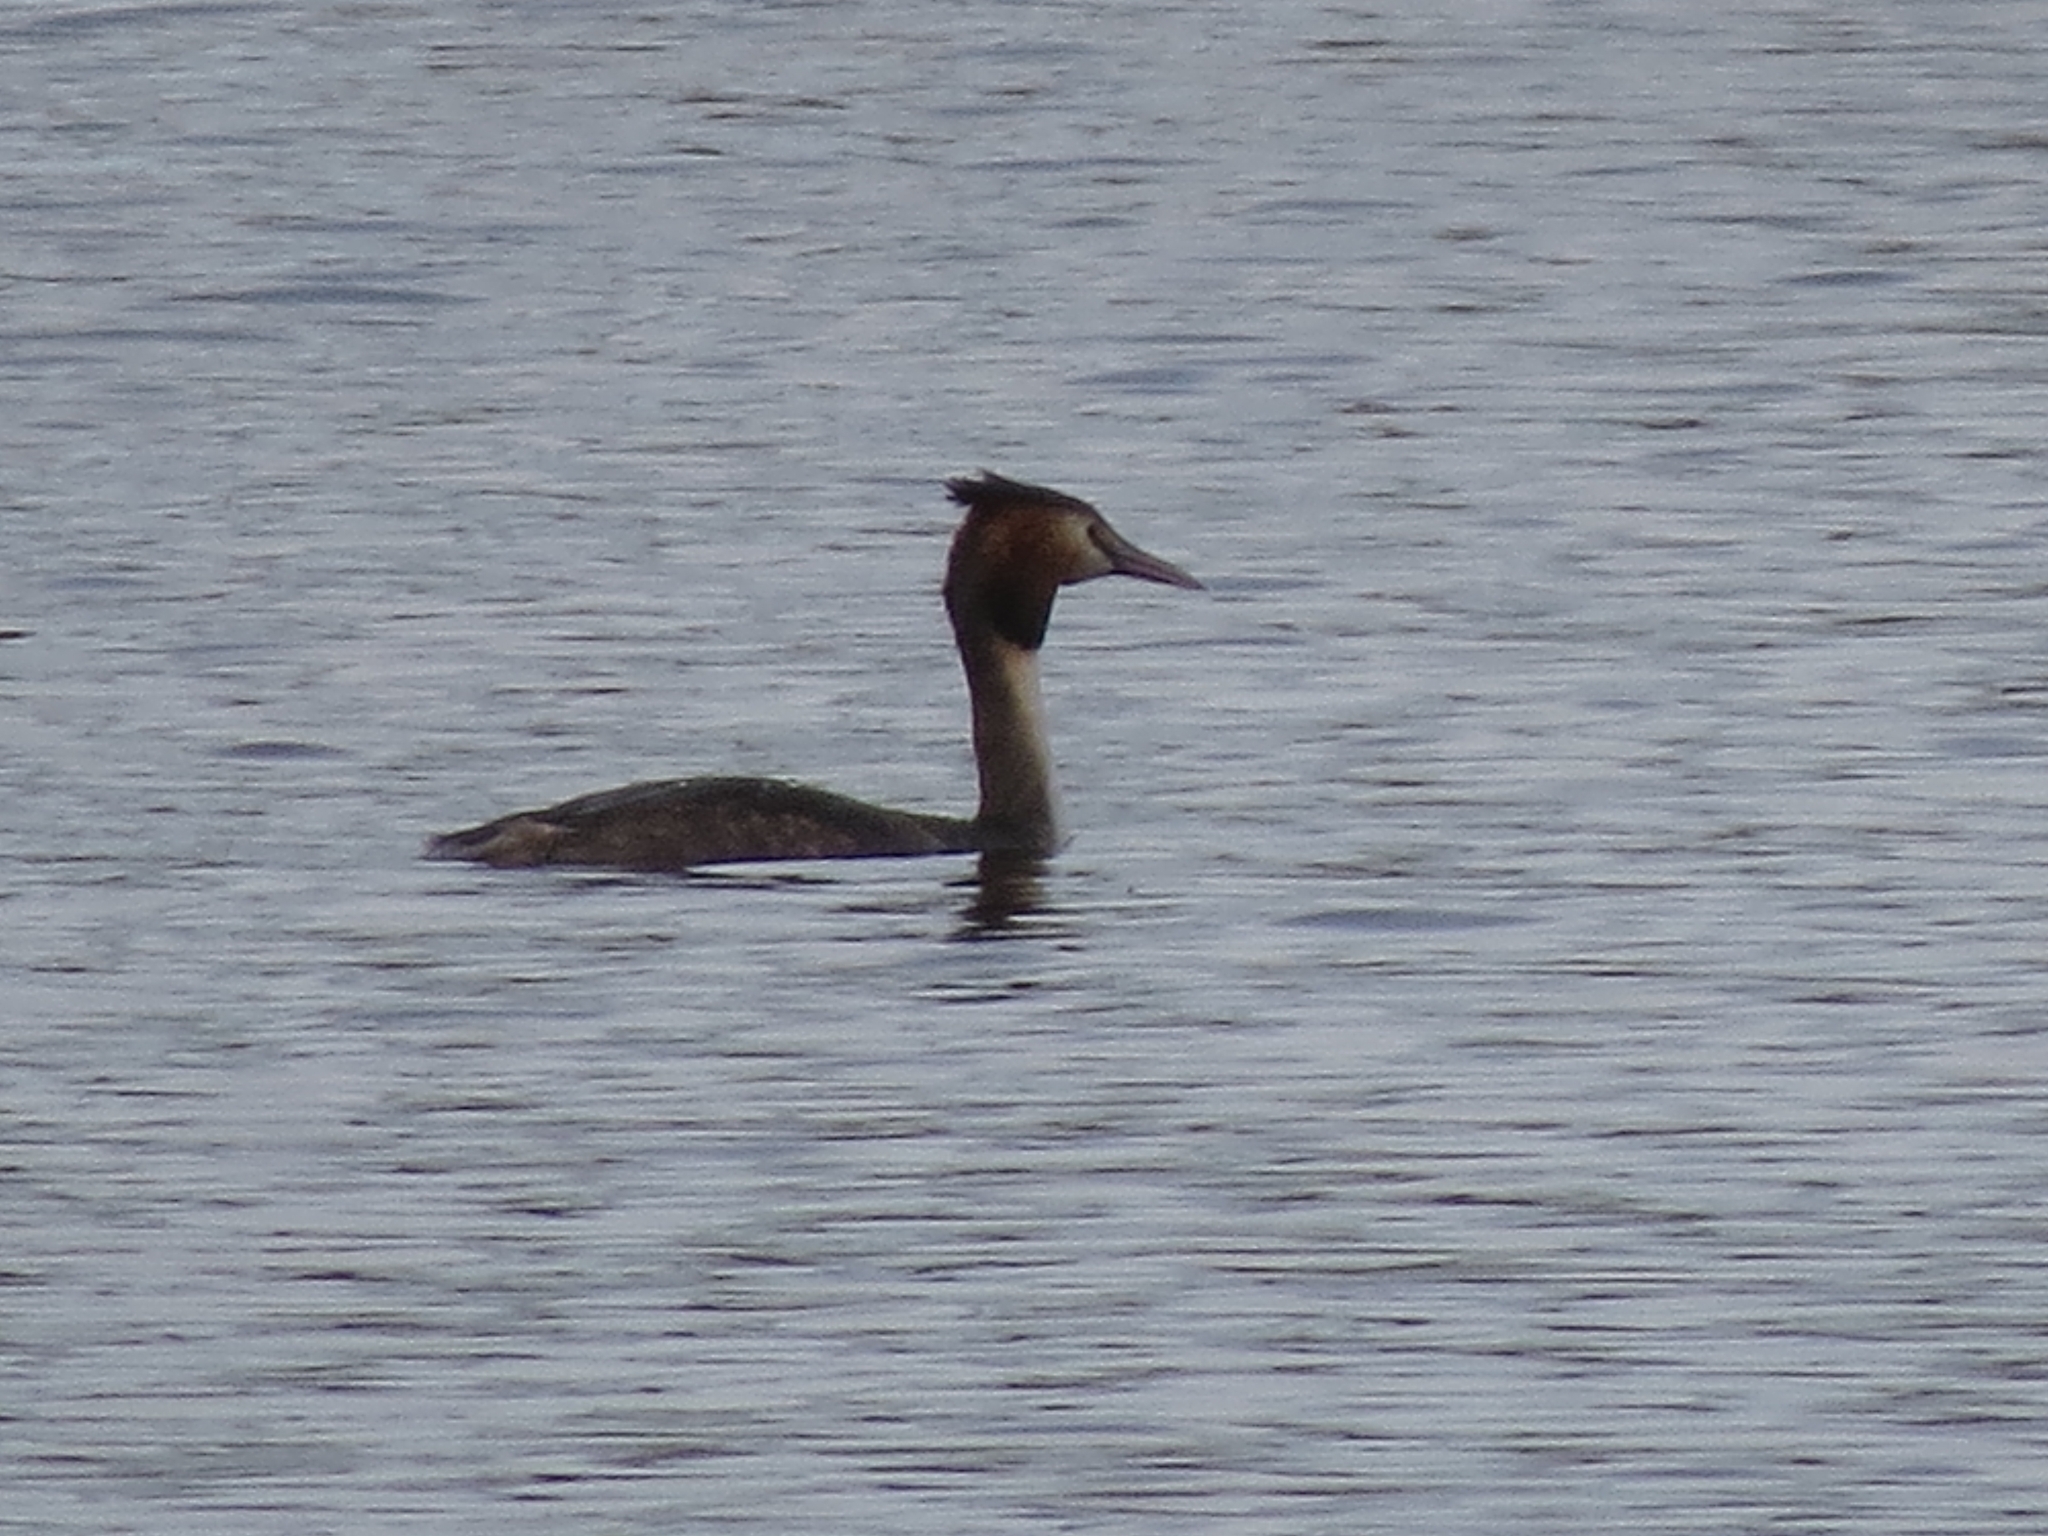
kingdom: Animalia
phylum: Chordata
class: Aves
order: Podicipediformes
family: Podicipedidae
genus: Podiceps
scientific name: Podiceps cristatus
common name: Great crested grebe
